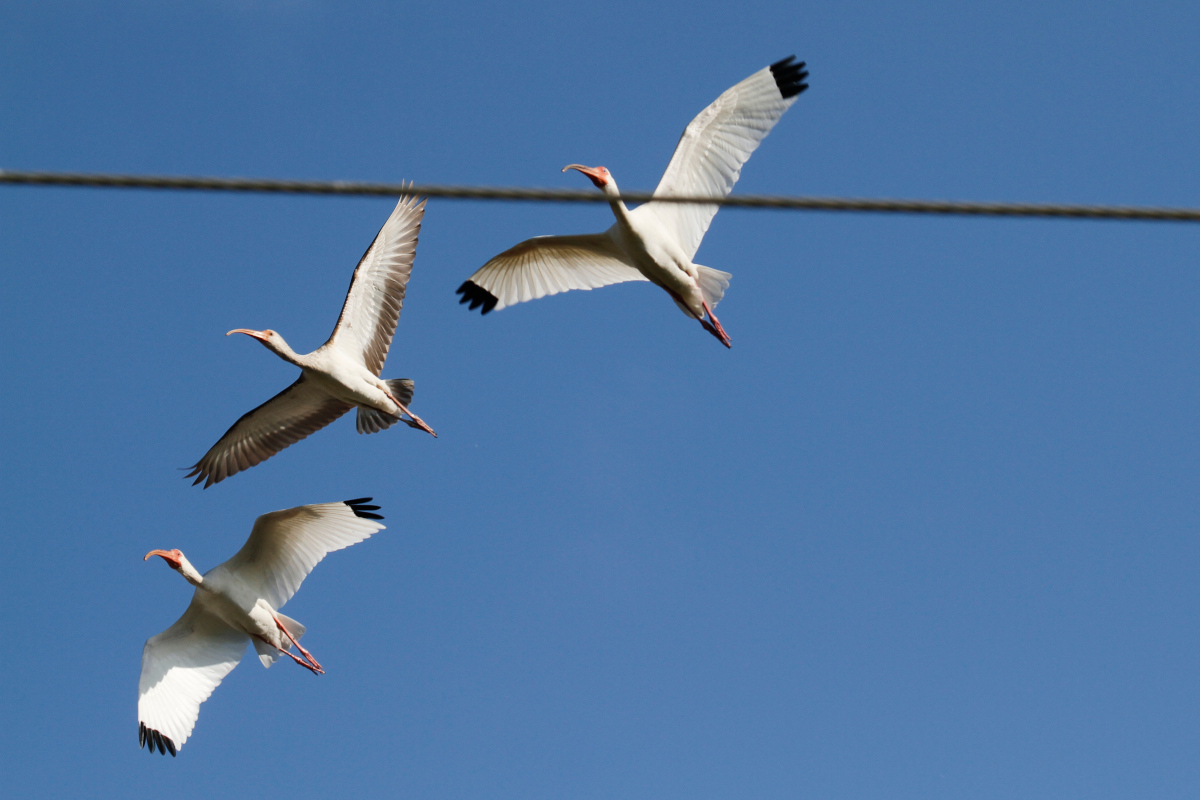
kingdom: Animalia
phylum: Chordata
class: Aves
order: Pelecaniformes
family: Threskiornithidae
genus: Eudocimus
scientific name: Eudocimus albus
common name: White ibis
